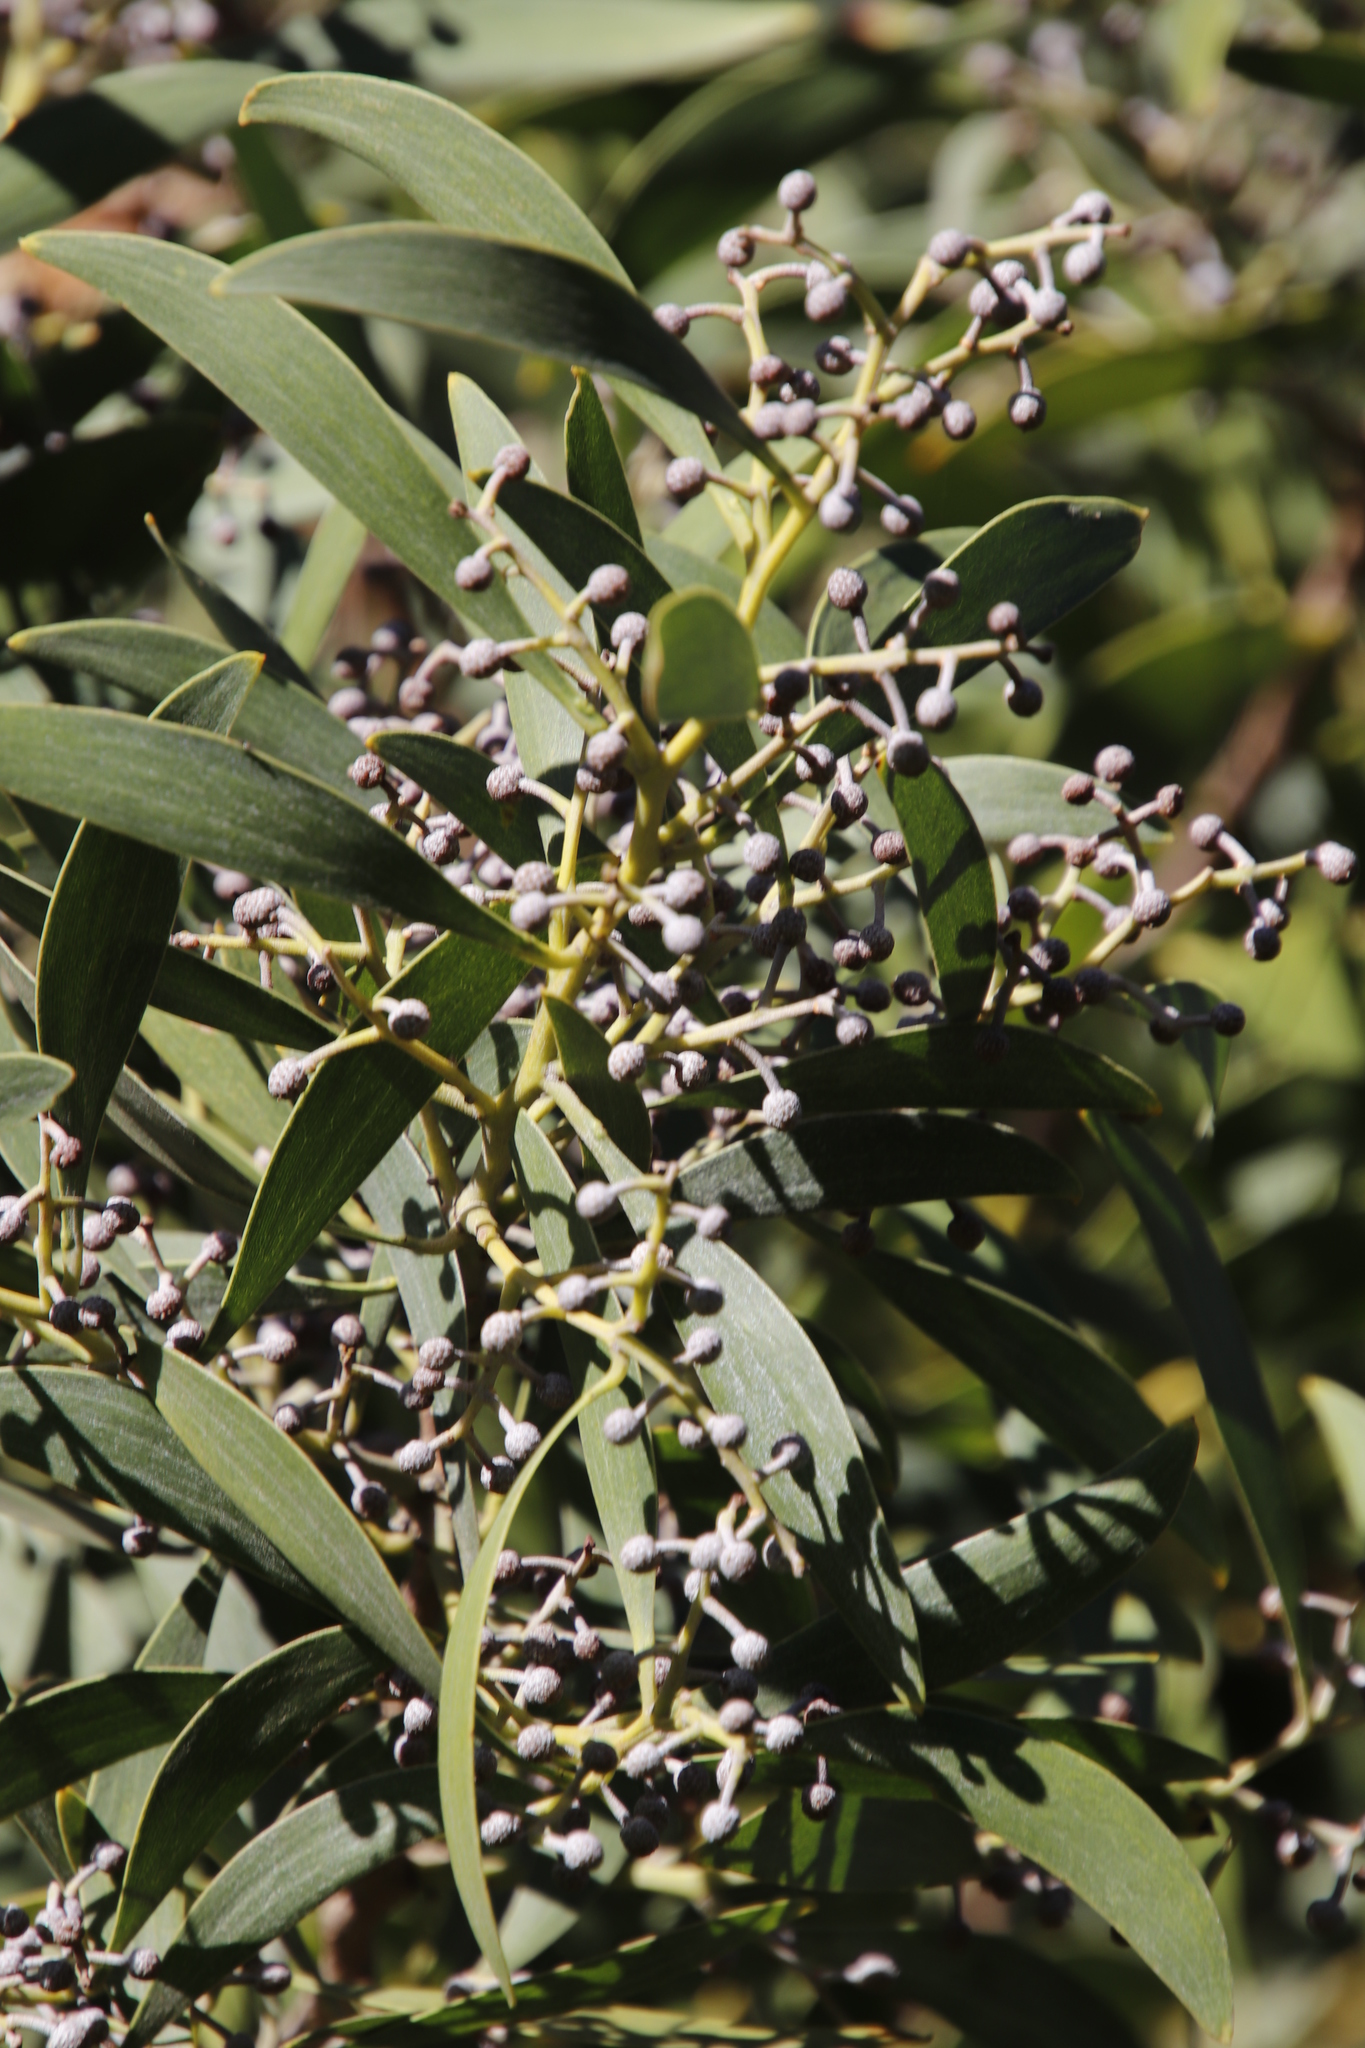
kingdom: Plantae
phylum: Tracheophyta
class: Magnoliopsida
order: Fabales
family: Fabaceae
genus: Acacia
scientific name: Acacia melanoxylon
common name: Blackwood
